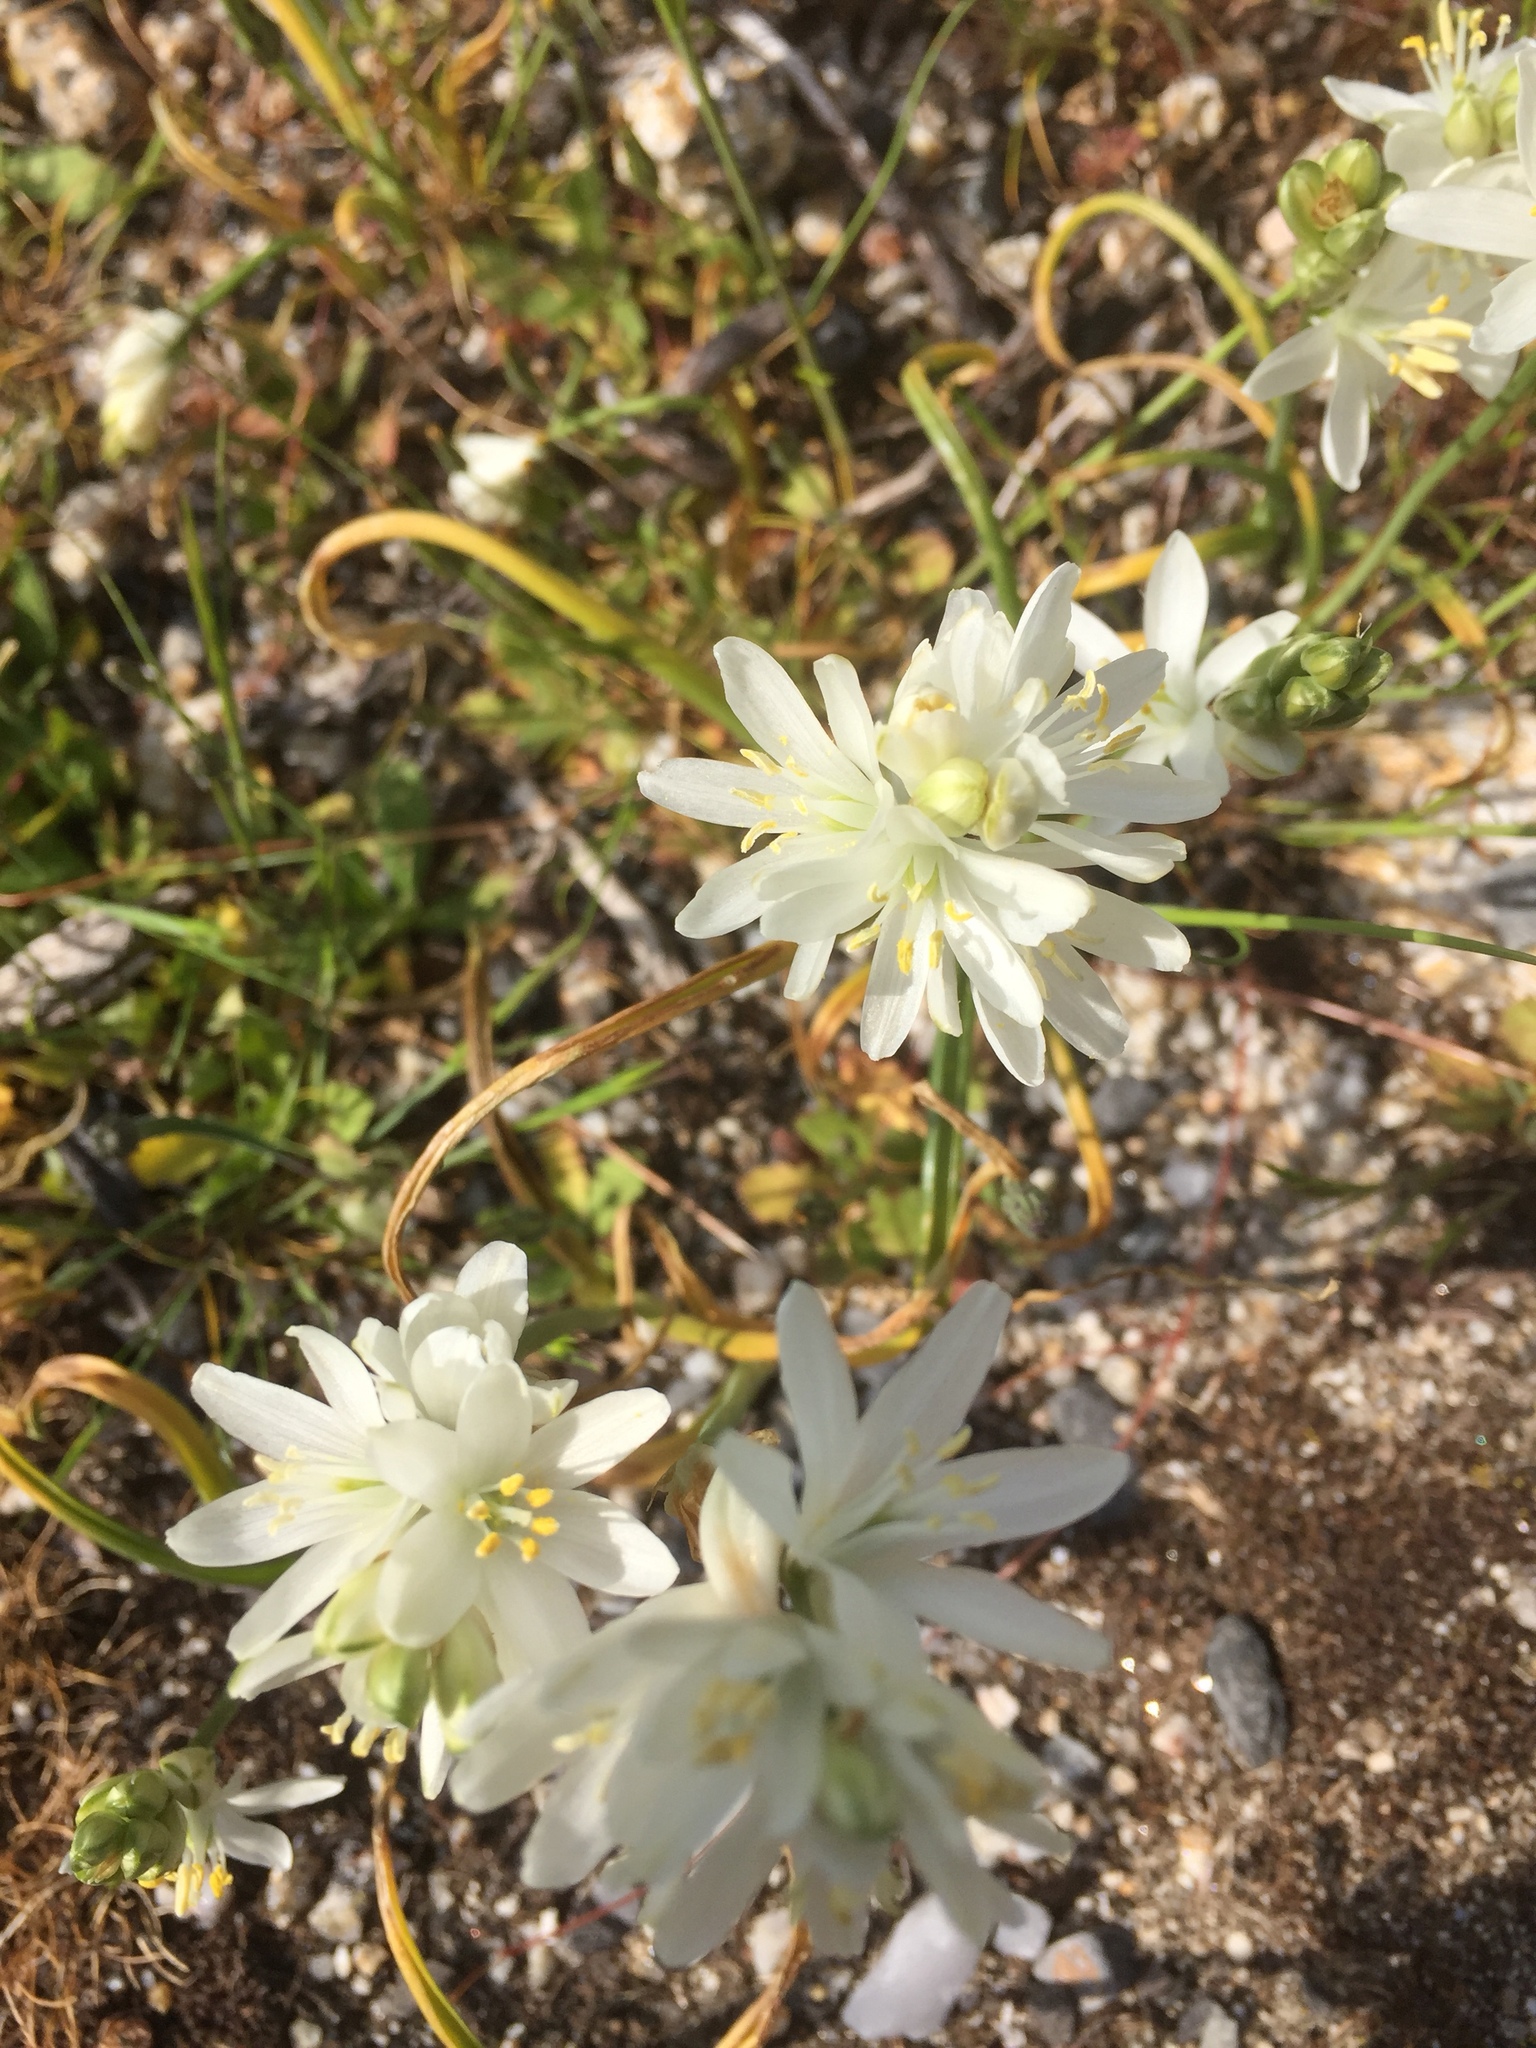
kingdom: Plantae
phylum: Tracheophyta
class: Liliopsida
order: Asparagales
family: Asparagaceae
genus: Ornithogalum
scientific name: Ornithogalum concinnum
